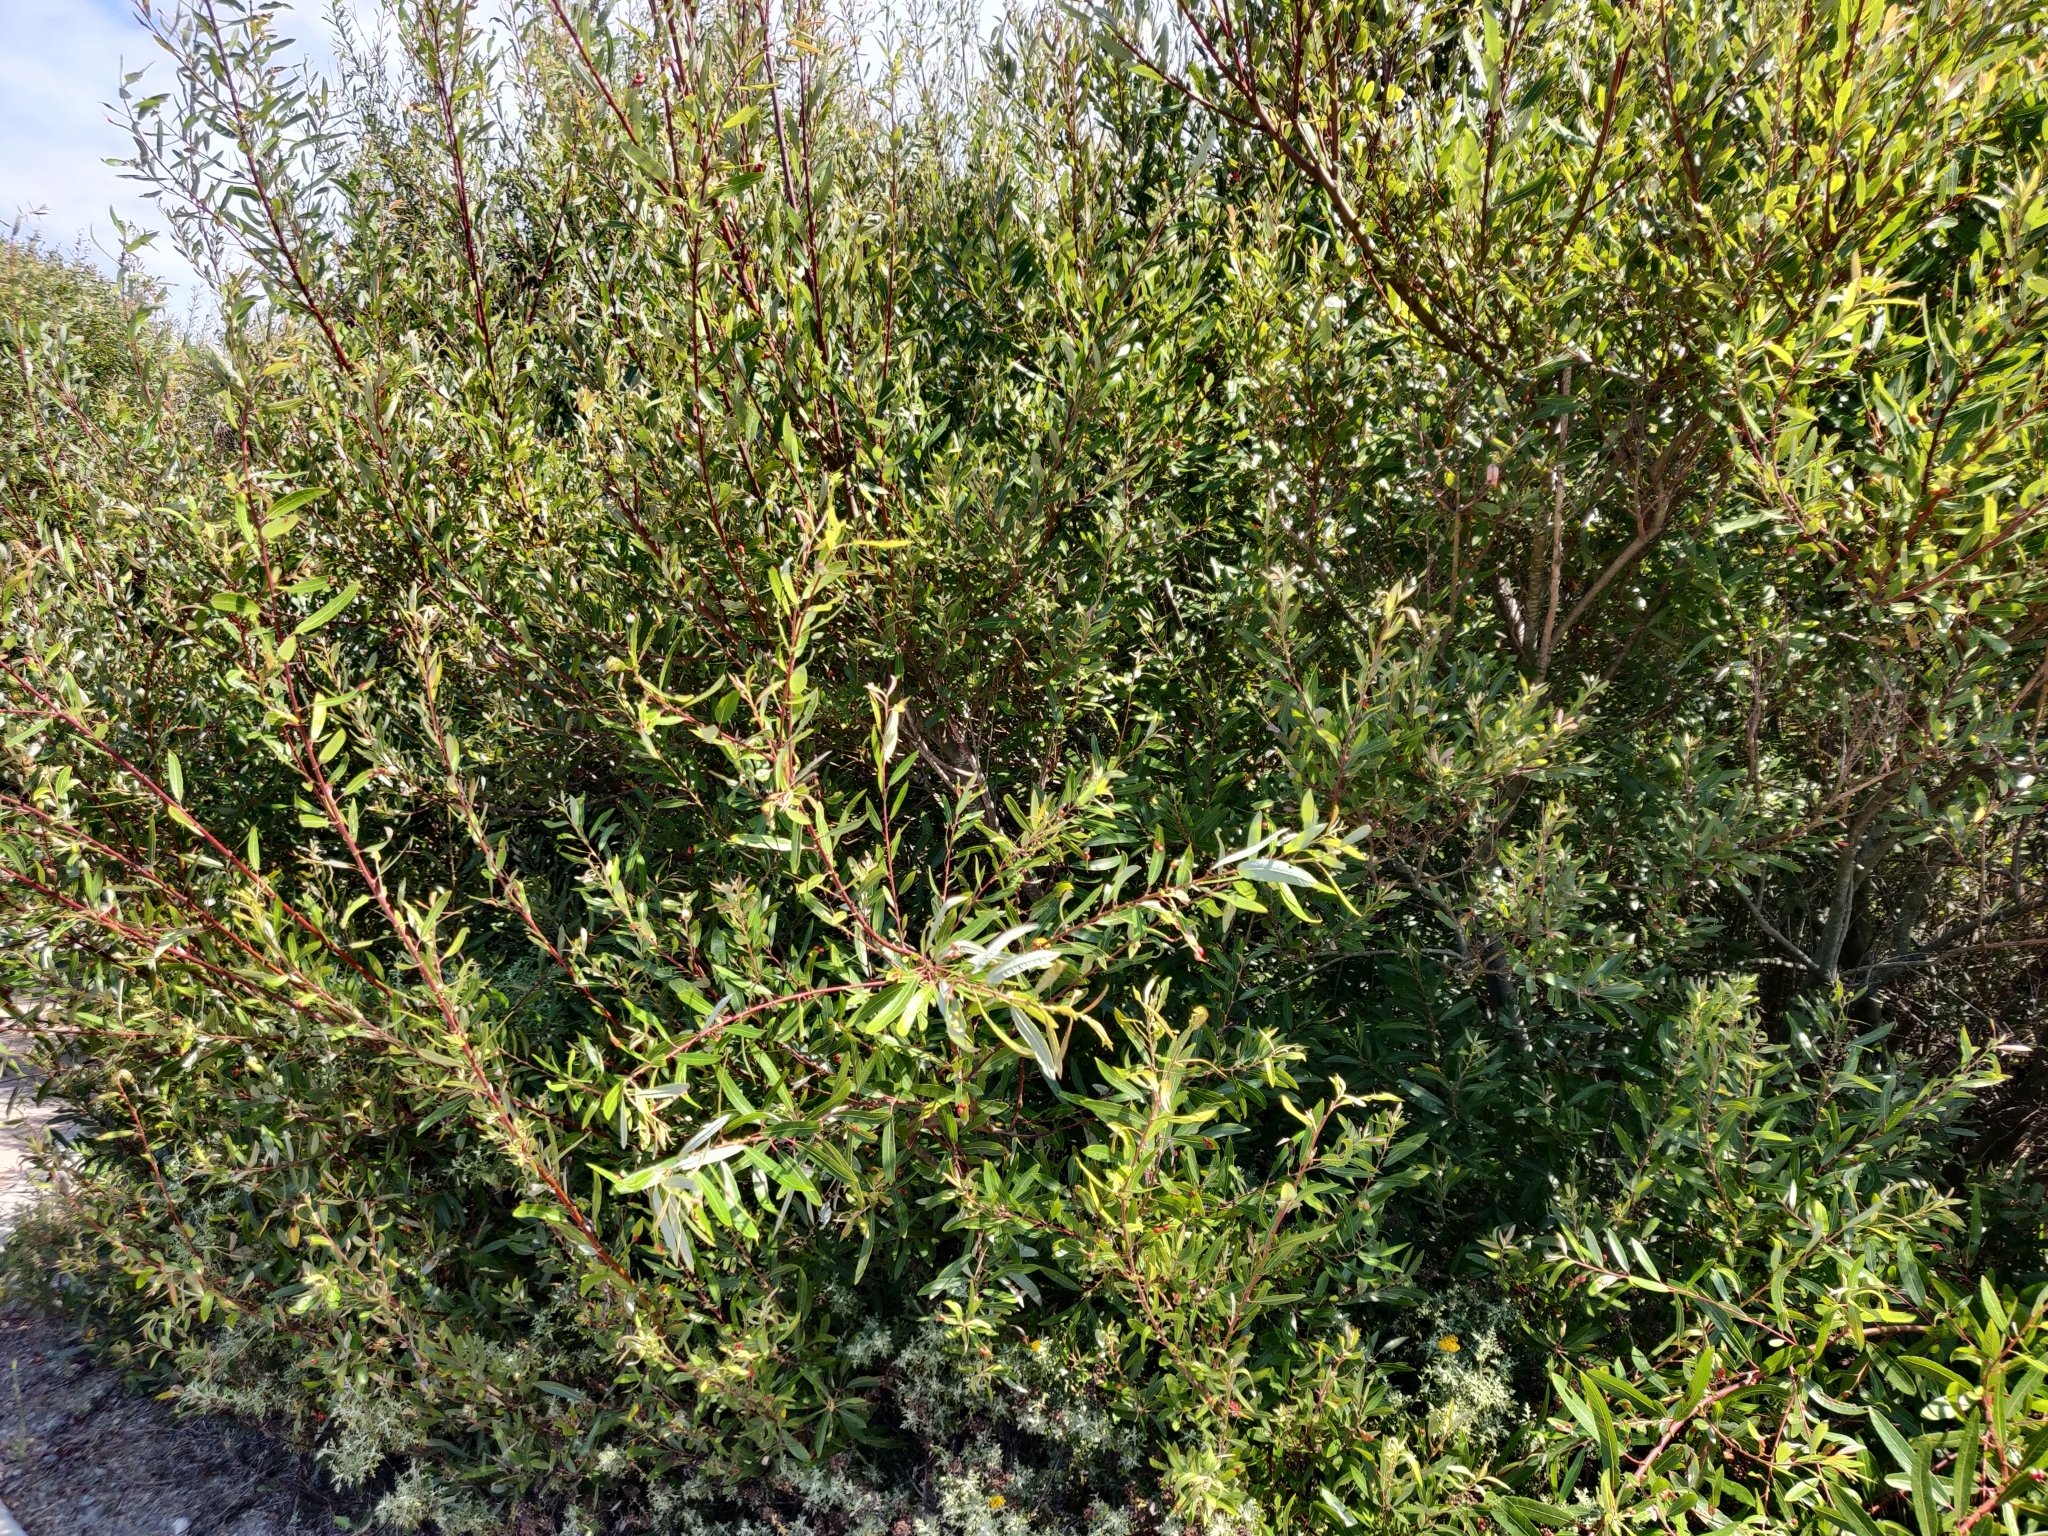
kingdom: Plantae
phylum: Tracheophyta
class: Magnoliopsida
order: Malpighiales
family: Salicaceae
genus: Salix
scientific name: Salix lasiolepis
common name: Arroyo willow
